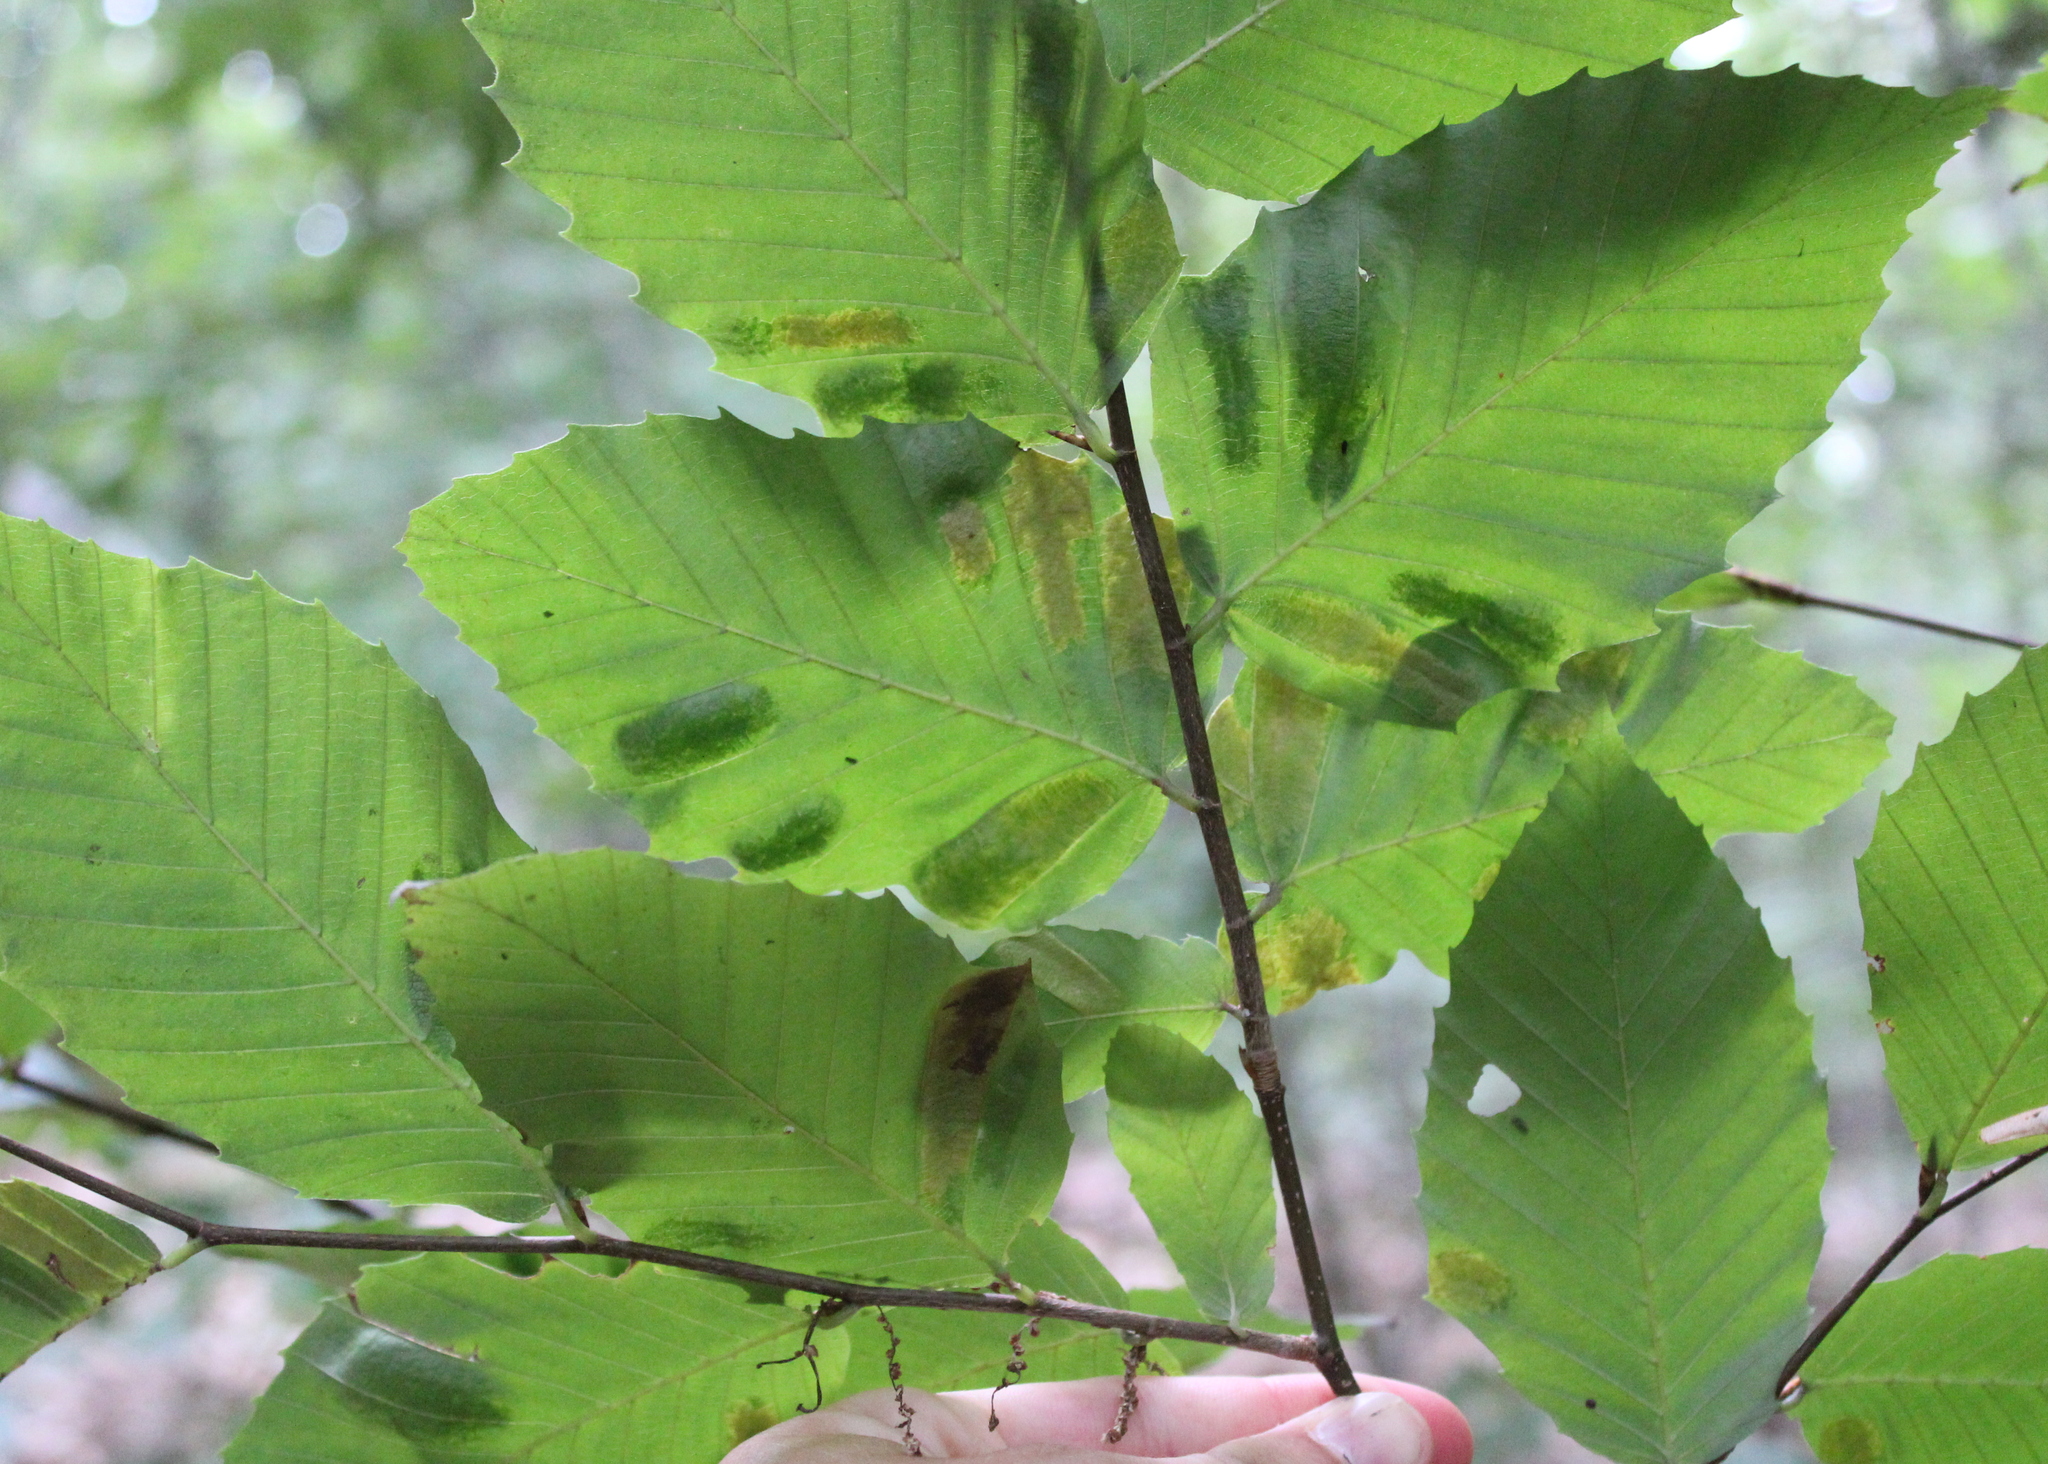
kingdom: Animalia
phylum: Nematoda
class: Chromadorea
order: Rhabditida
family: Anguinidae
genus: Litylenchus
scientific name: Litylenchus crenatae
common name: Beech leaf disease
